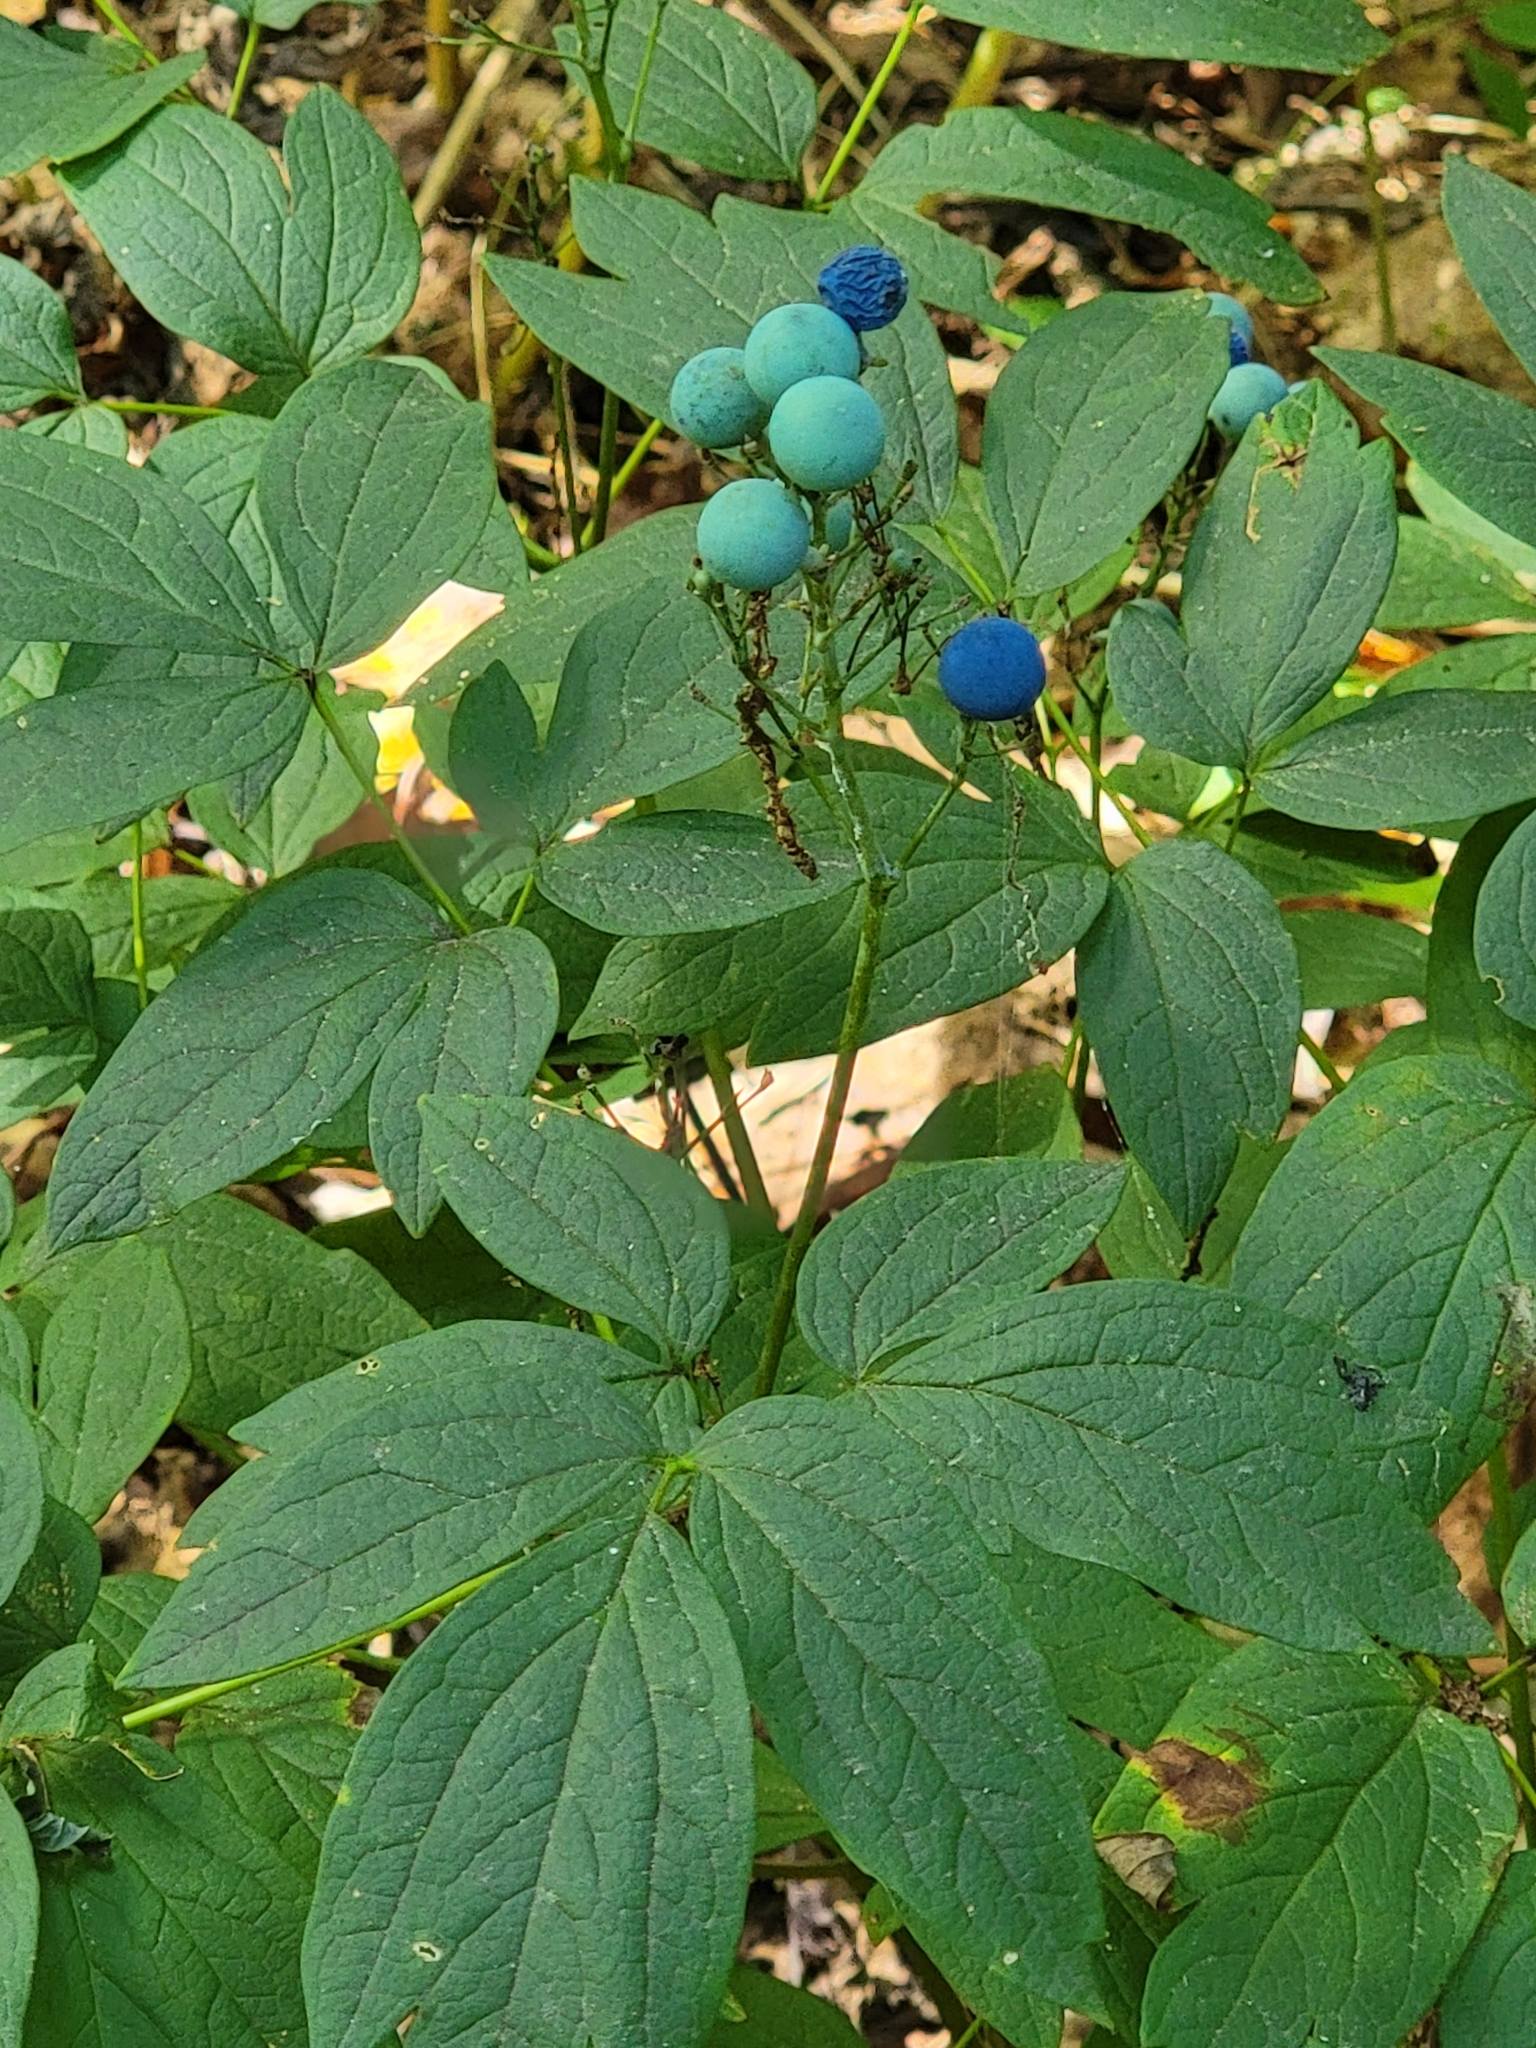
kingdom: Plantae
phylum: Tracheophyta
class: Magnoliopsida
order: Ranunculales
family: Berberidaceae
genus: Caulophyllum
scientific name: Caulophyllum thalictroides
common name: Blue cohosh
